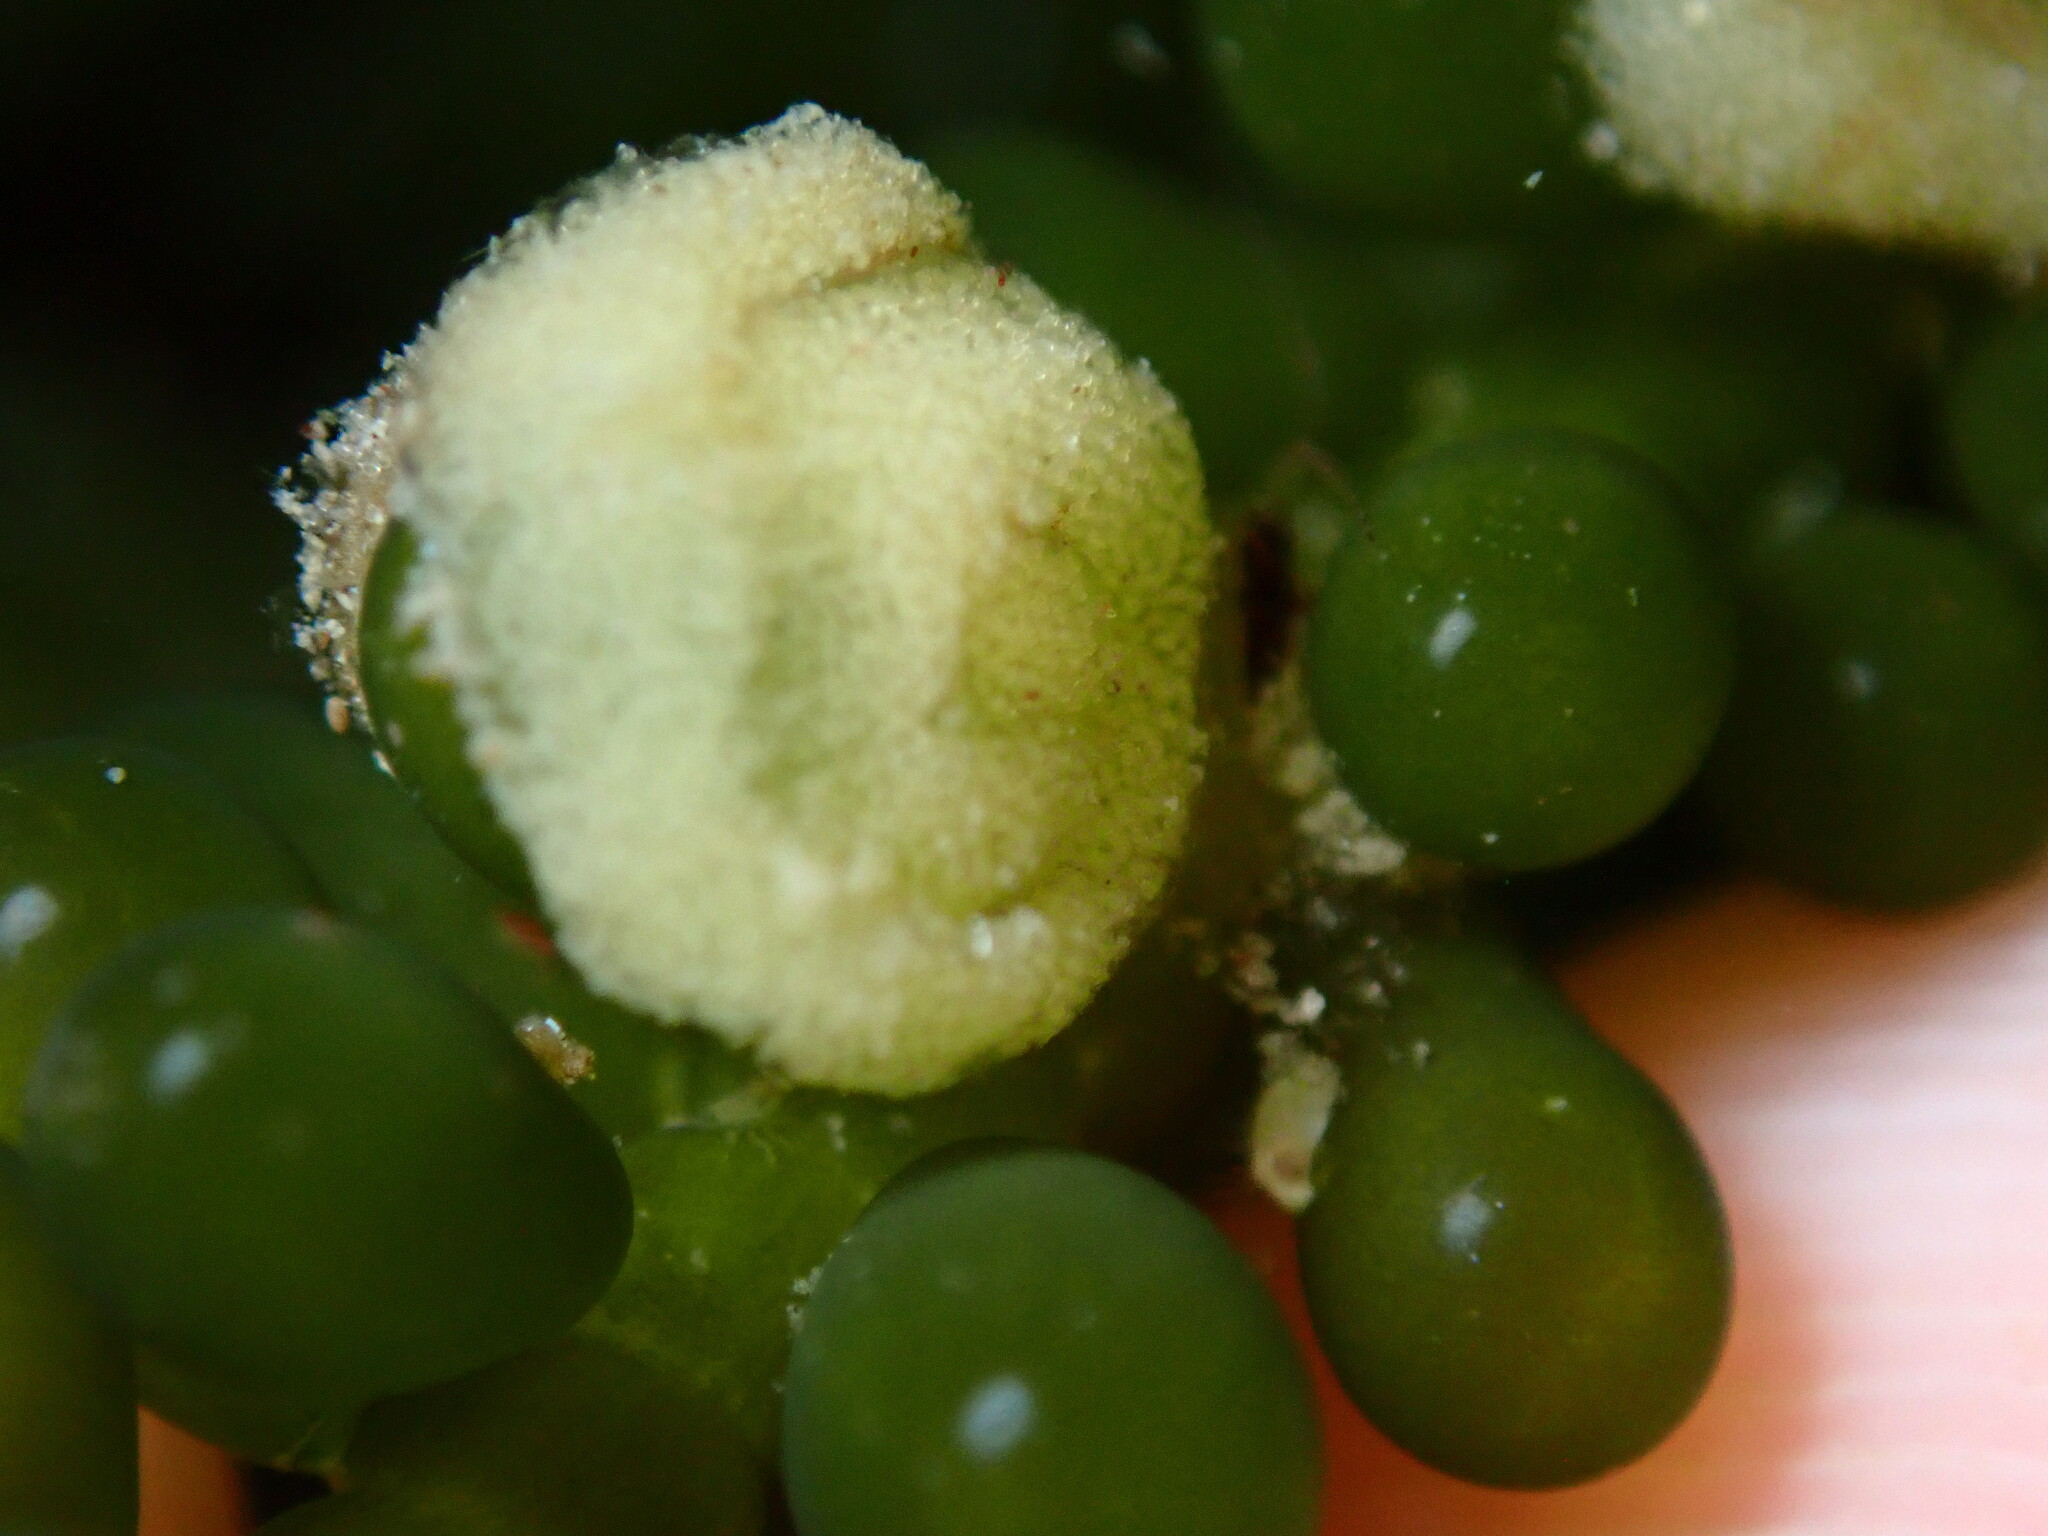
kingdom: Animalia
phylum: Mollusca
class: Gastropoda
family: Oxynoidae
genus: Oxynoe
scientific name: Oxynoe viridis
